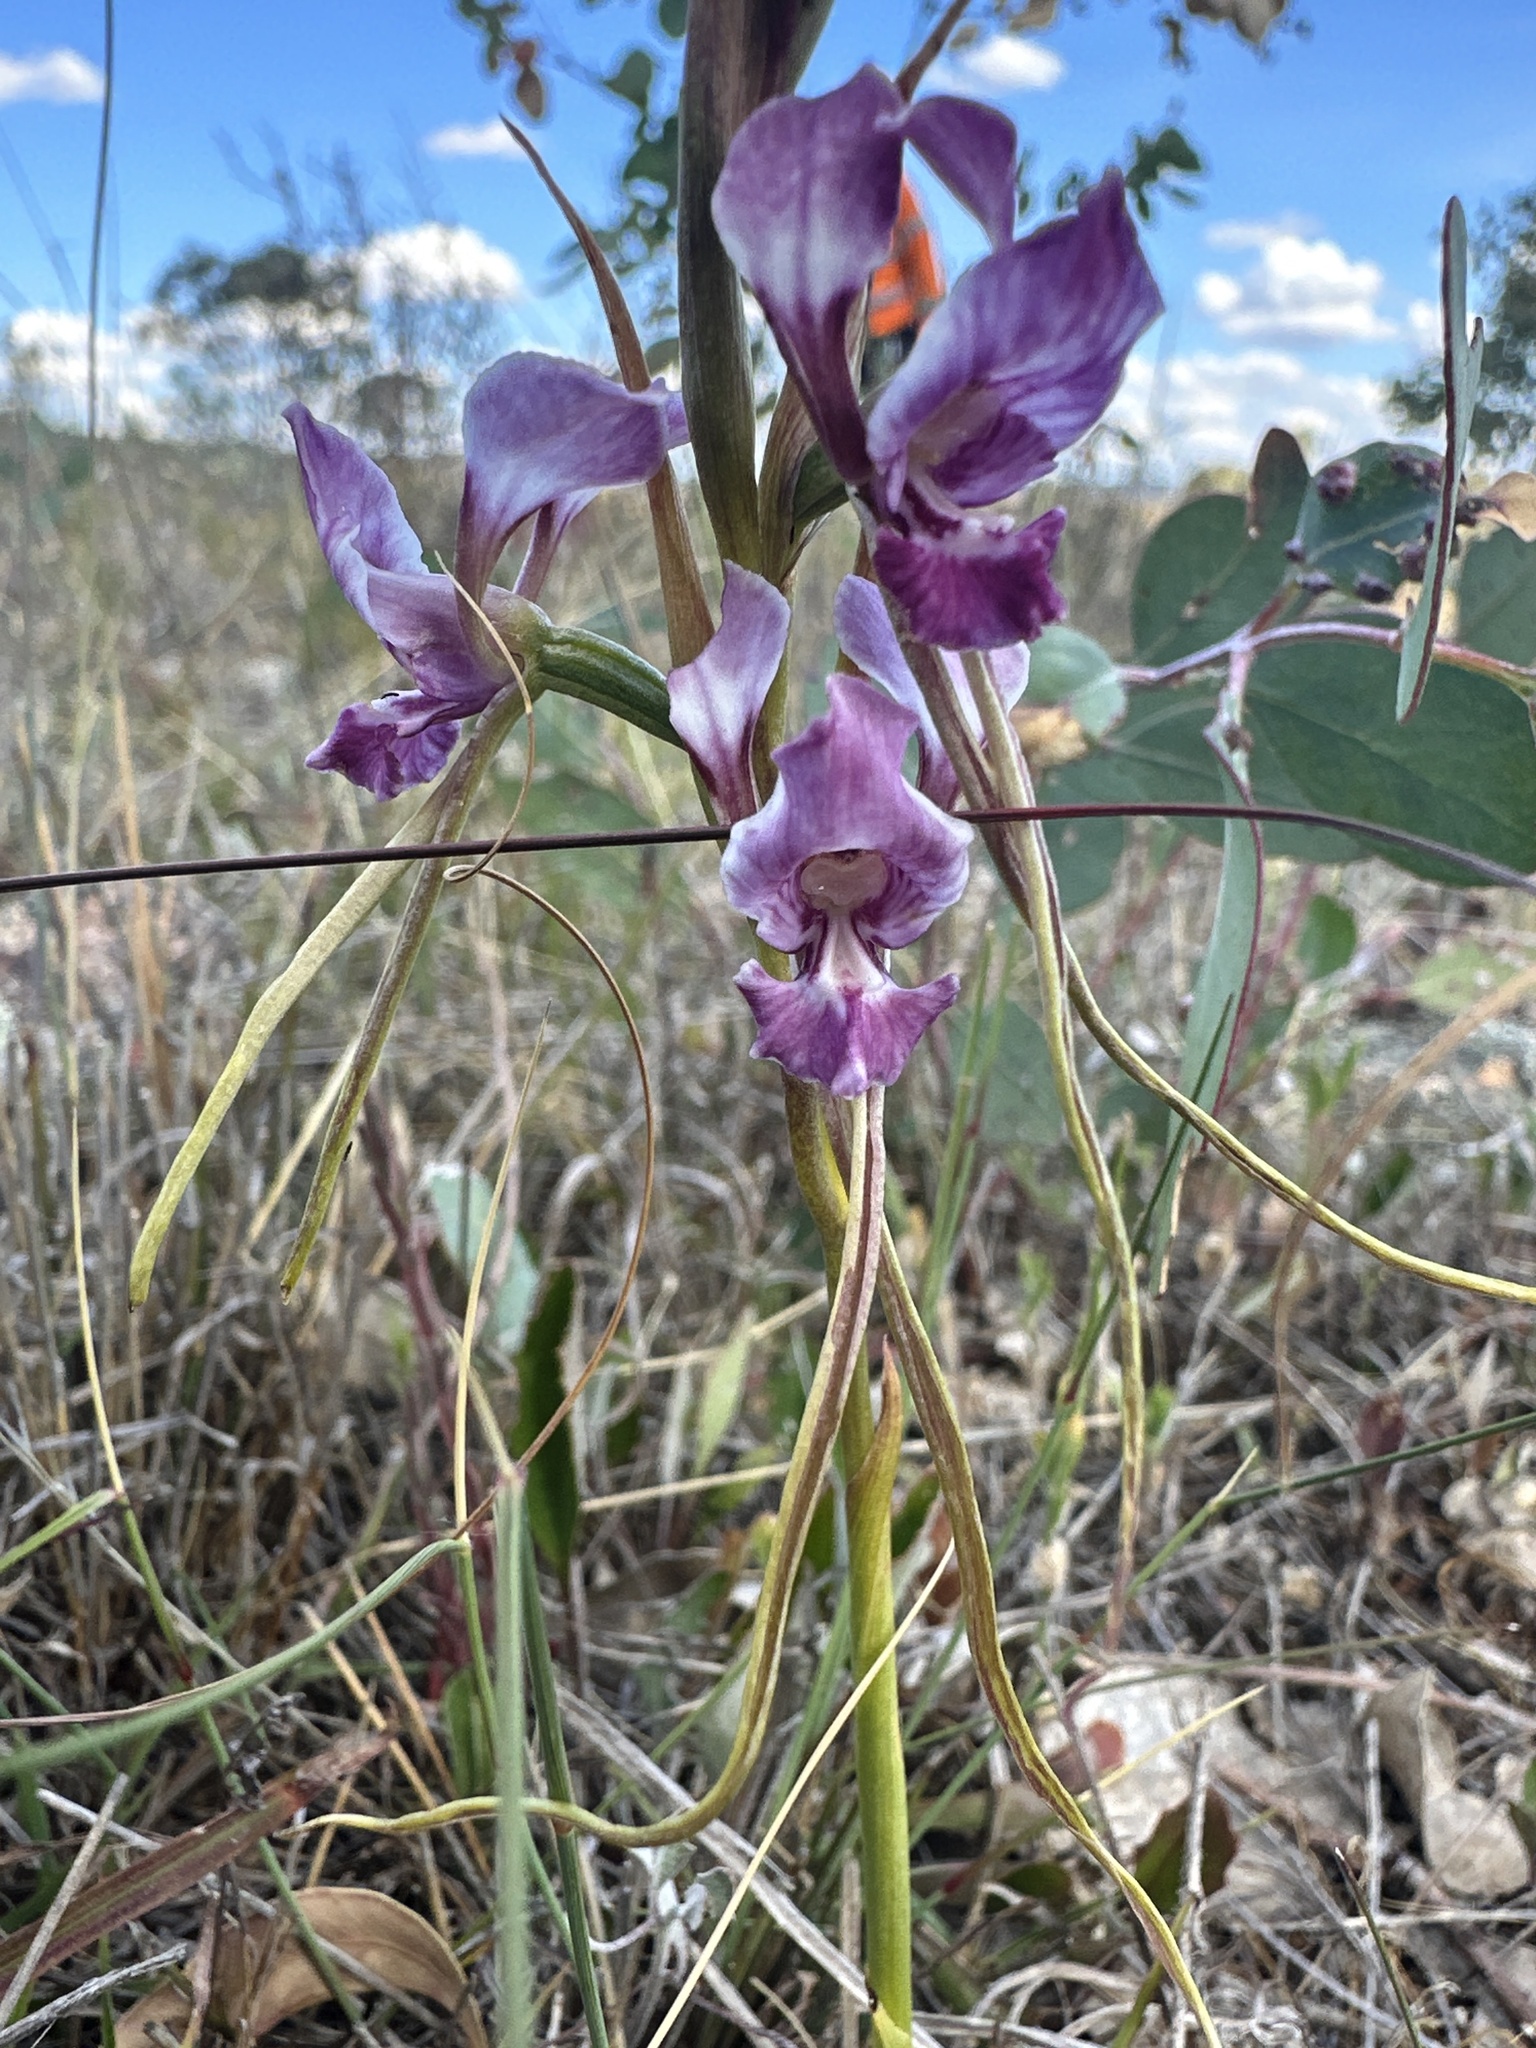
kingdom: Plantae
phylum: Tracheophyta
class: Liliopsida
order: Asparagales
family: Orchidaceae
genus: Diuris
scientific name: Diuris punctata
